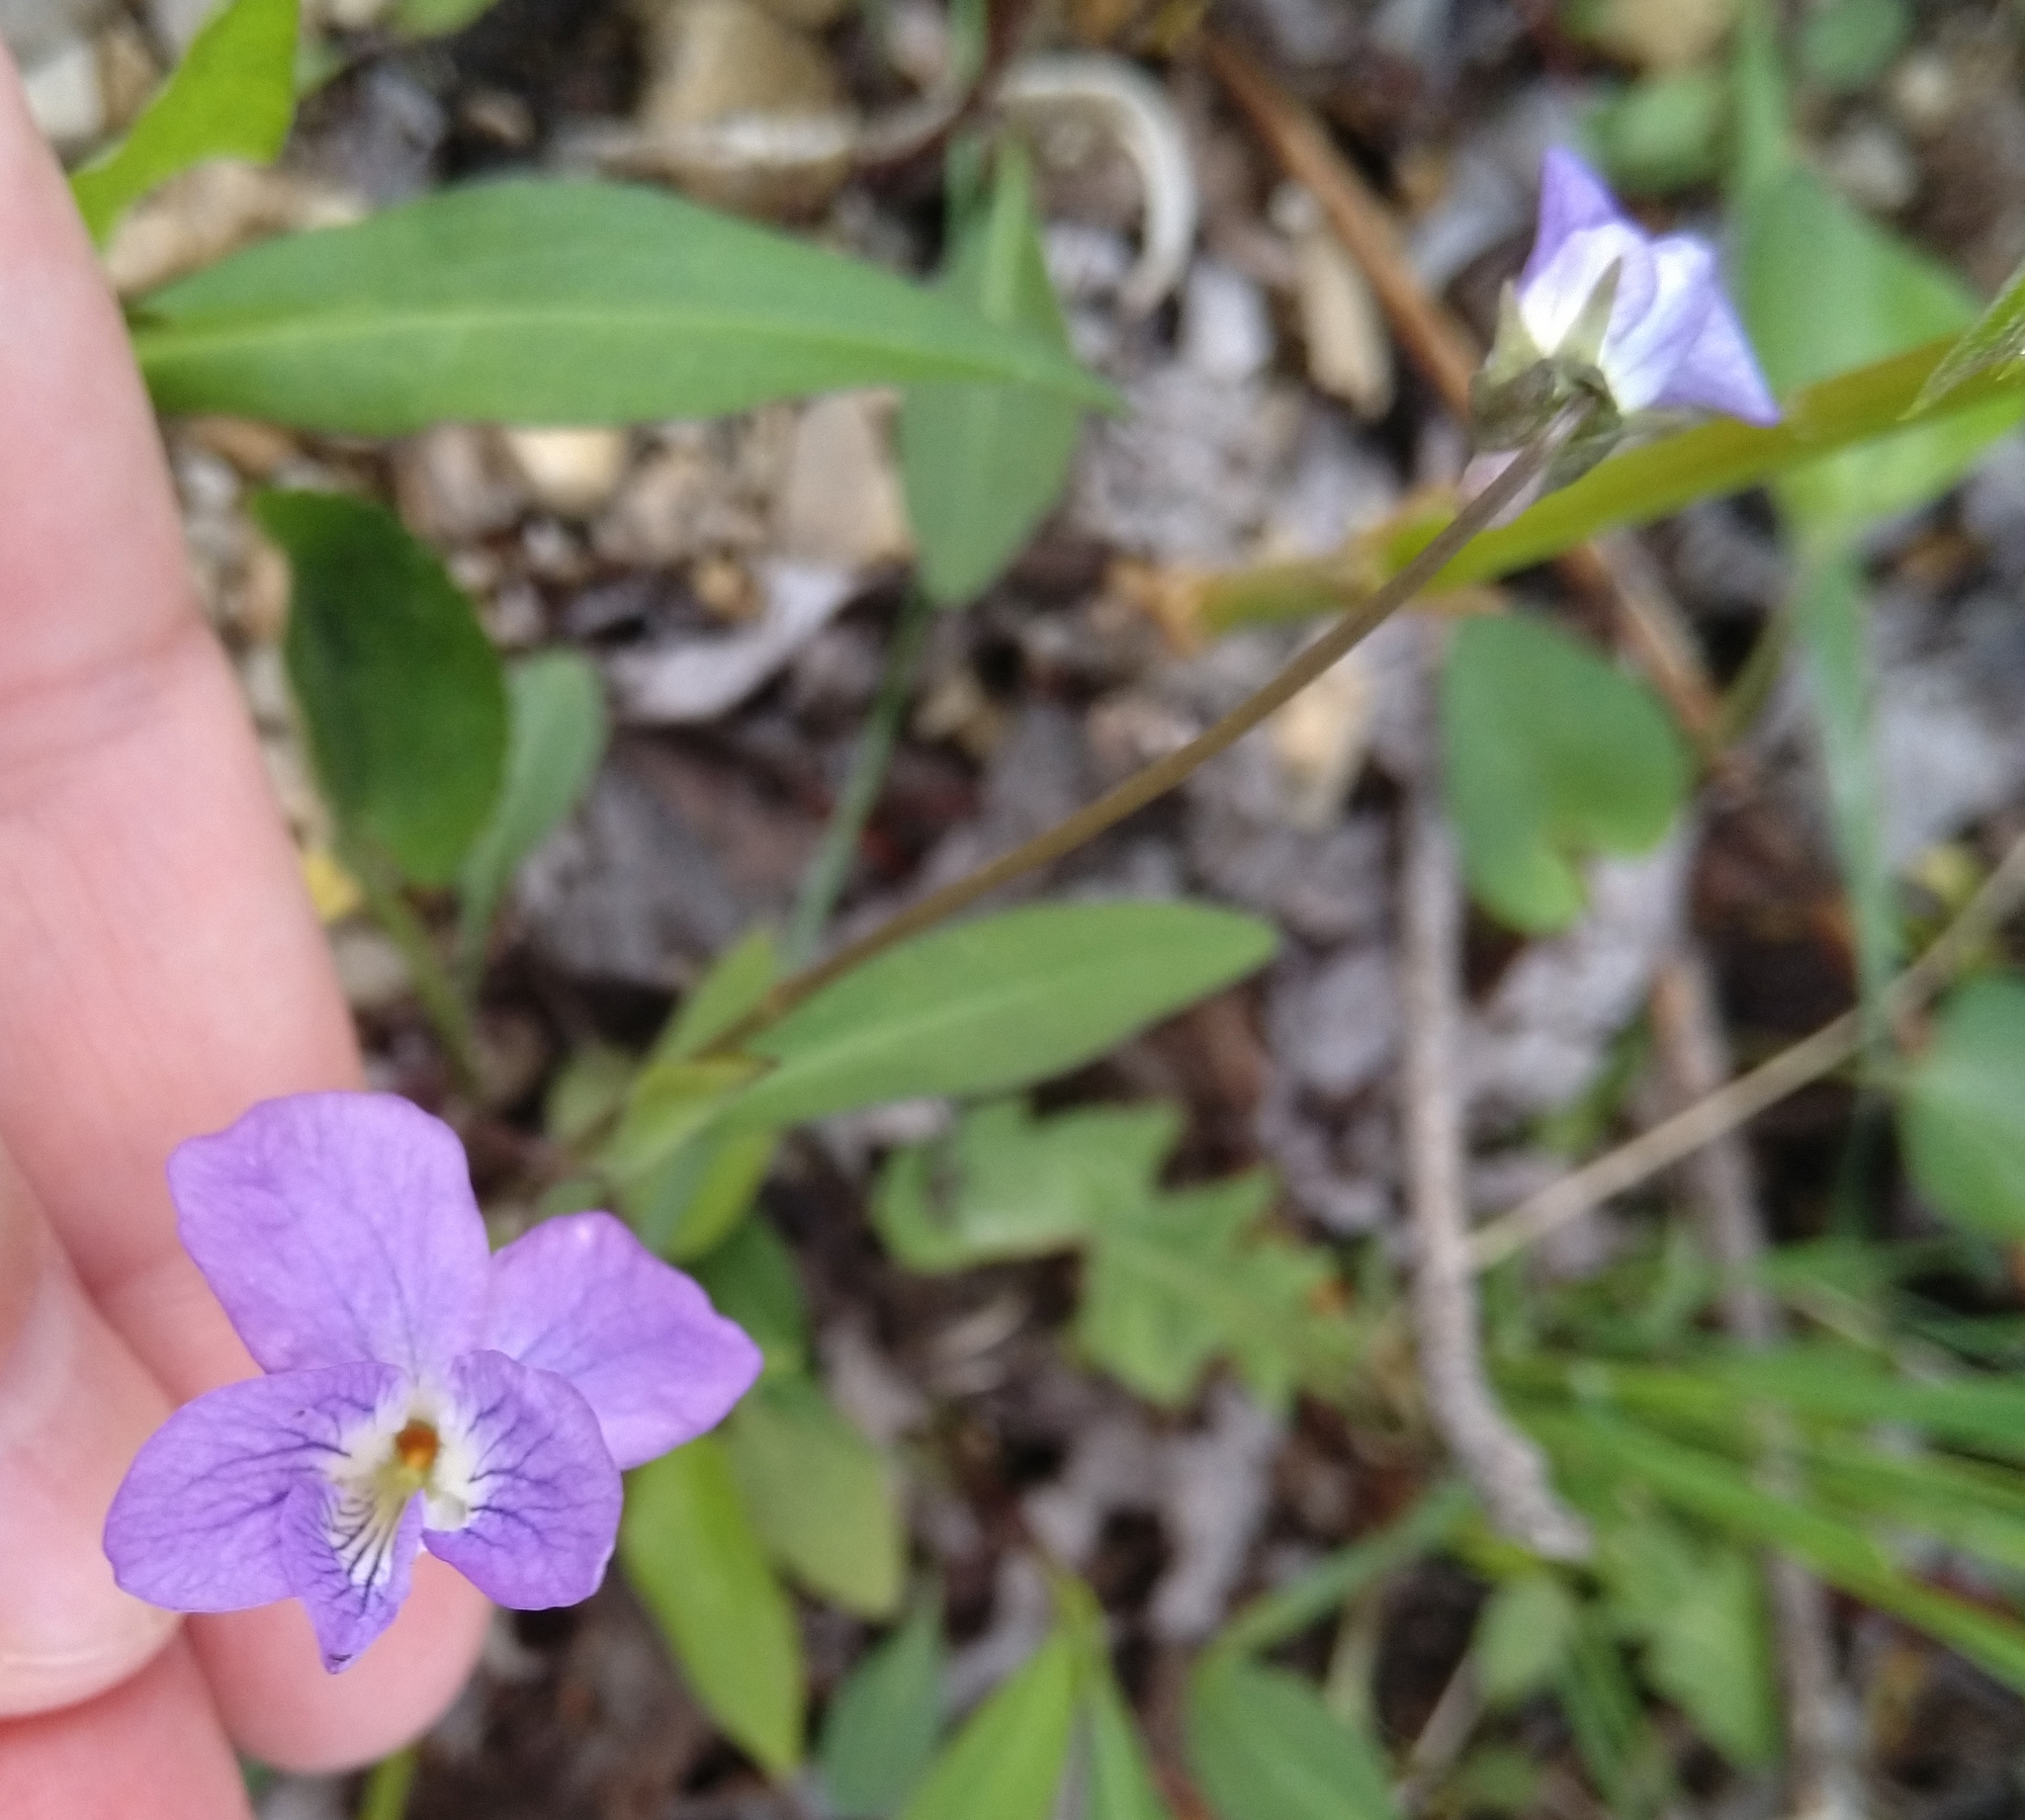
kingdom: Plantae
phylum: Tracheophyta
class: Magnoliopsida
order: Malpighiales
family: Violaceae
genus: Viola
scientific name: Viola cucullata
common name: Marsh blue violet
